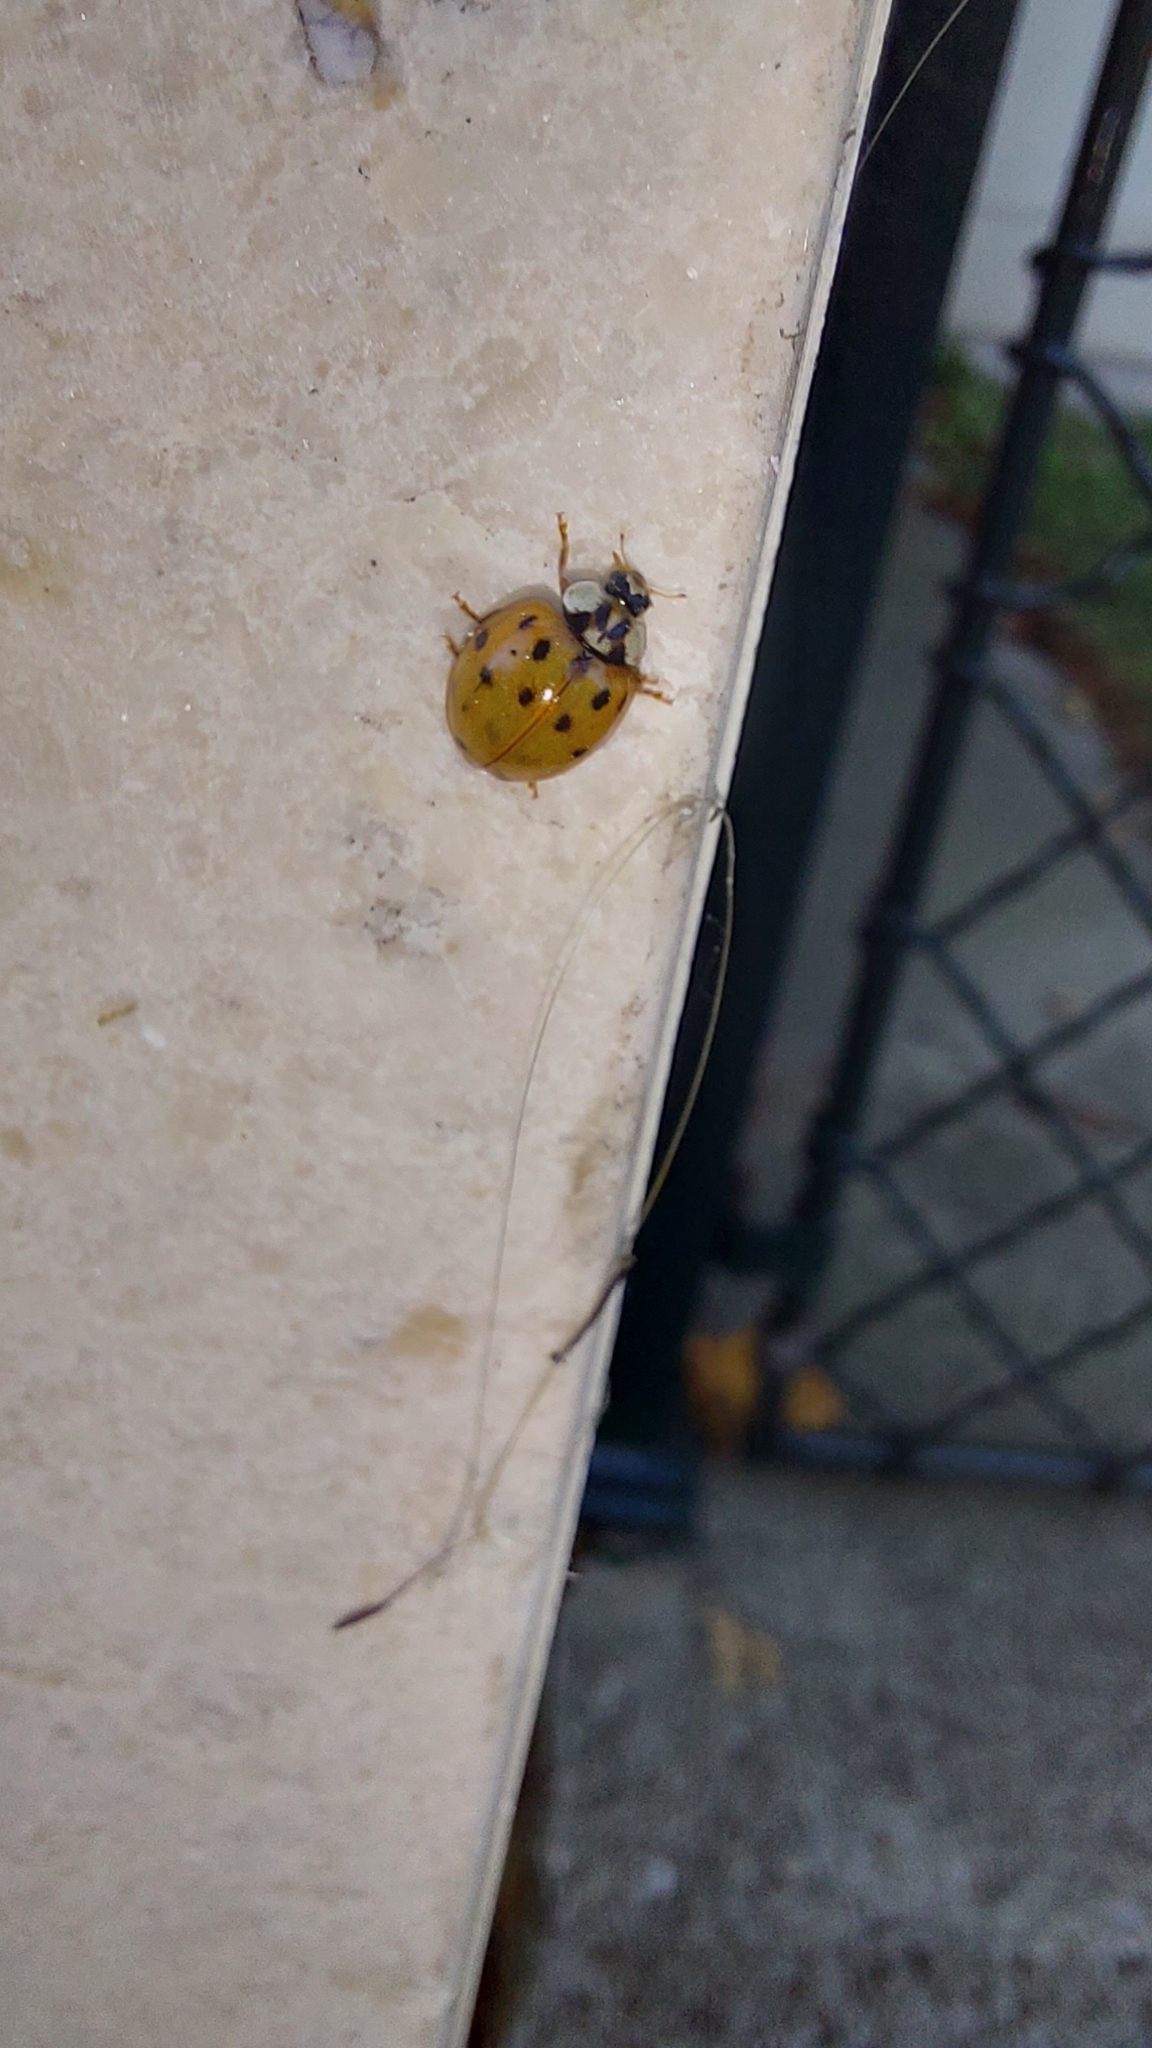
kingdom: Animalia
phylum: Arthropoda
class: Insecta
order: Coleoptera
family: Coccinellidae
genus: Harmonia
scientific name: Harmonia axyridis
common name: Harlequin ladybird
